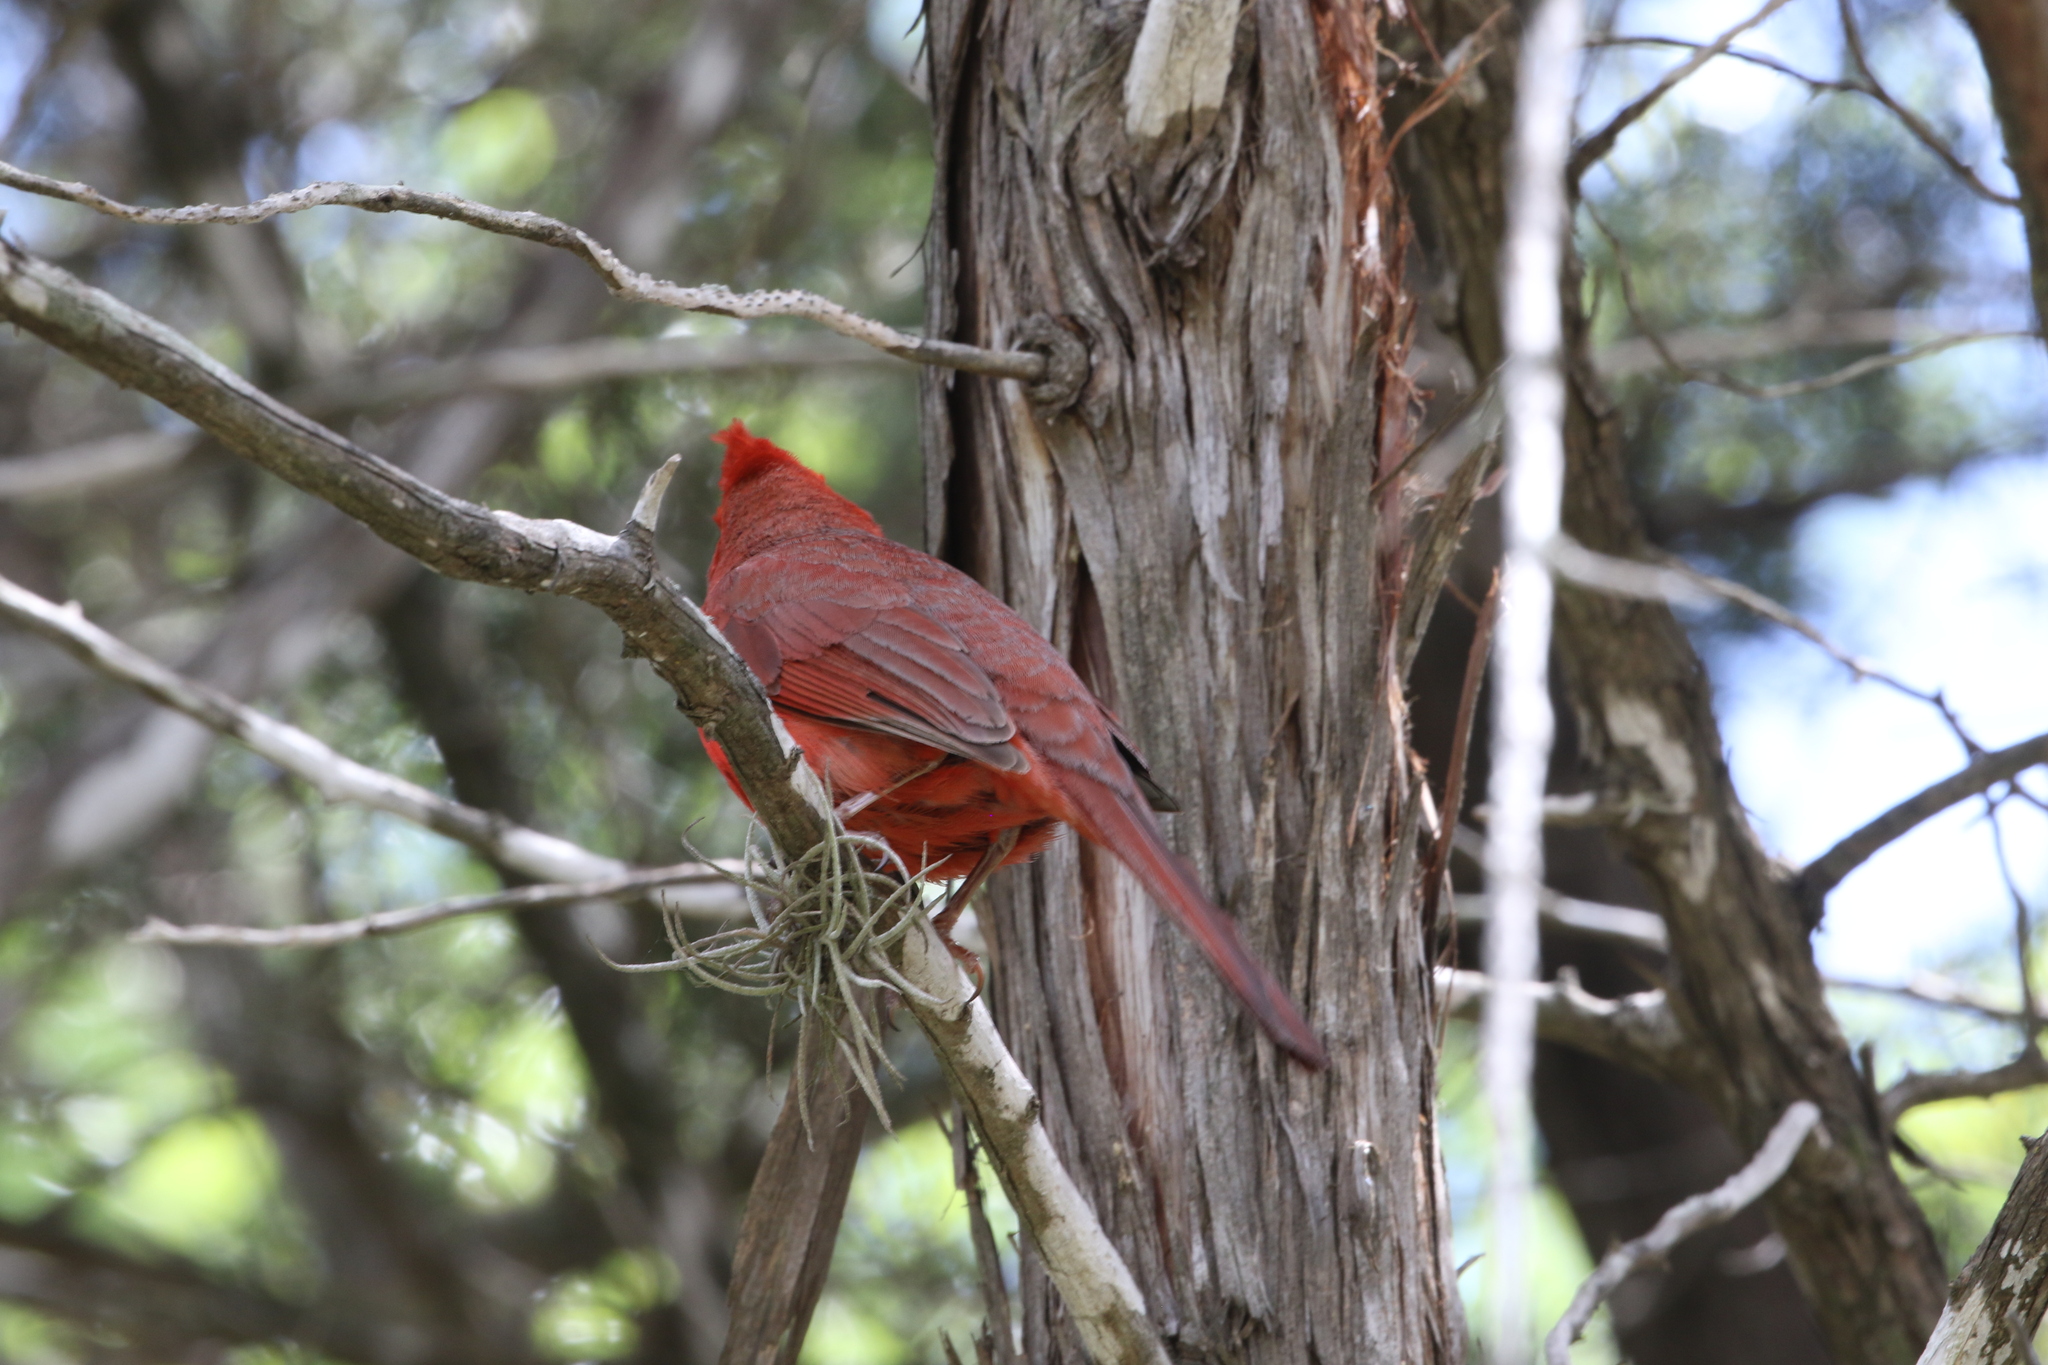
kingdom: Animalia
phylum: Chordata
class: Aves
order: Passeriformes
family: Cardinalidae
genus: Cardinalis
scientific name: Cardinalis cardinalis
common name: Northern cardinal
